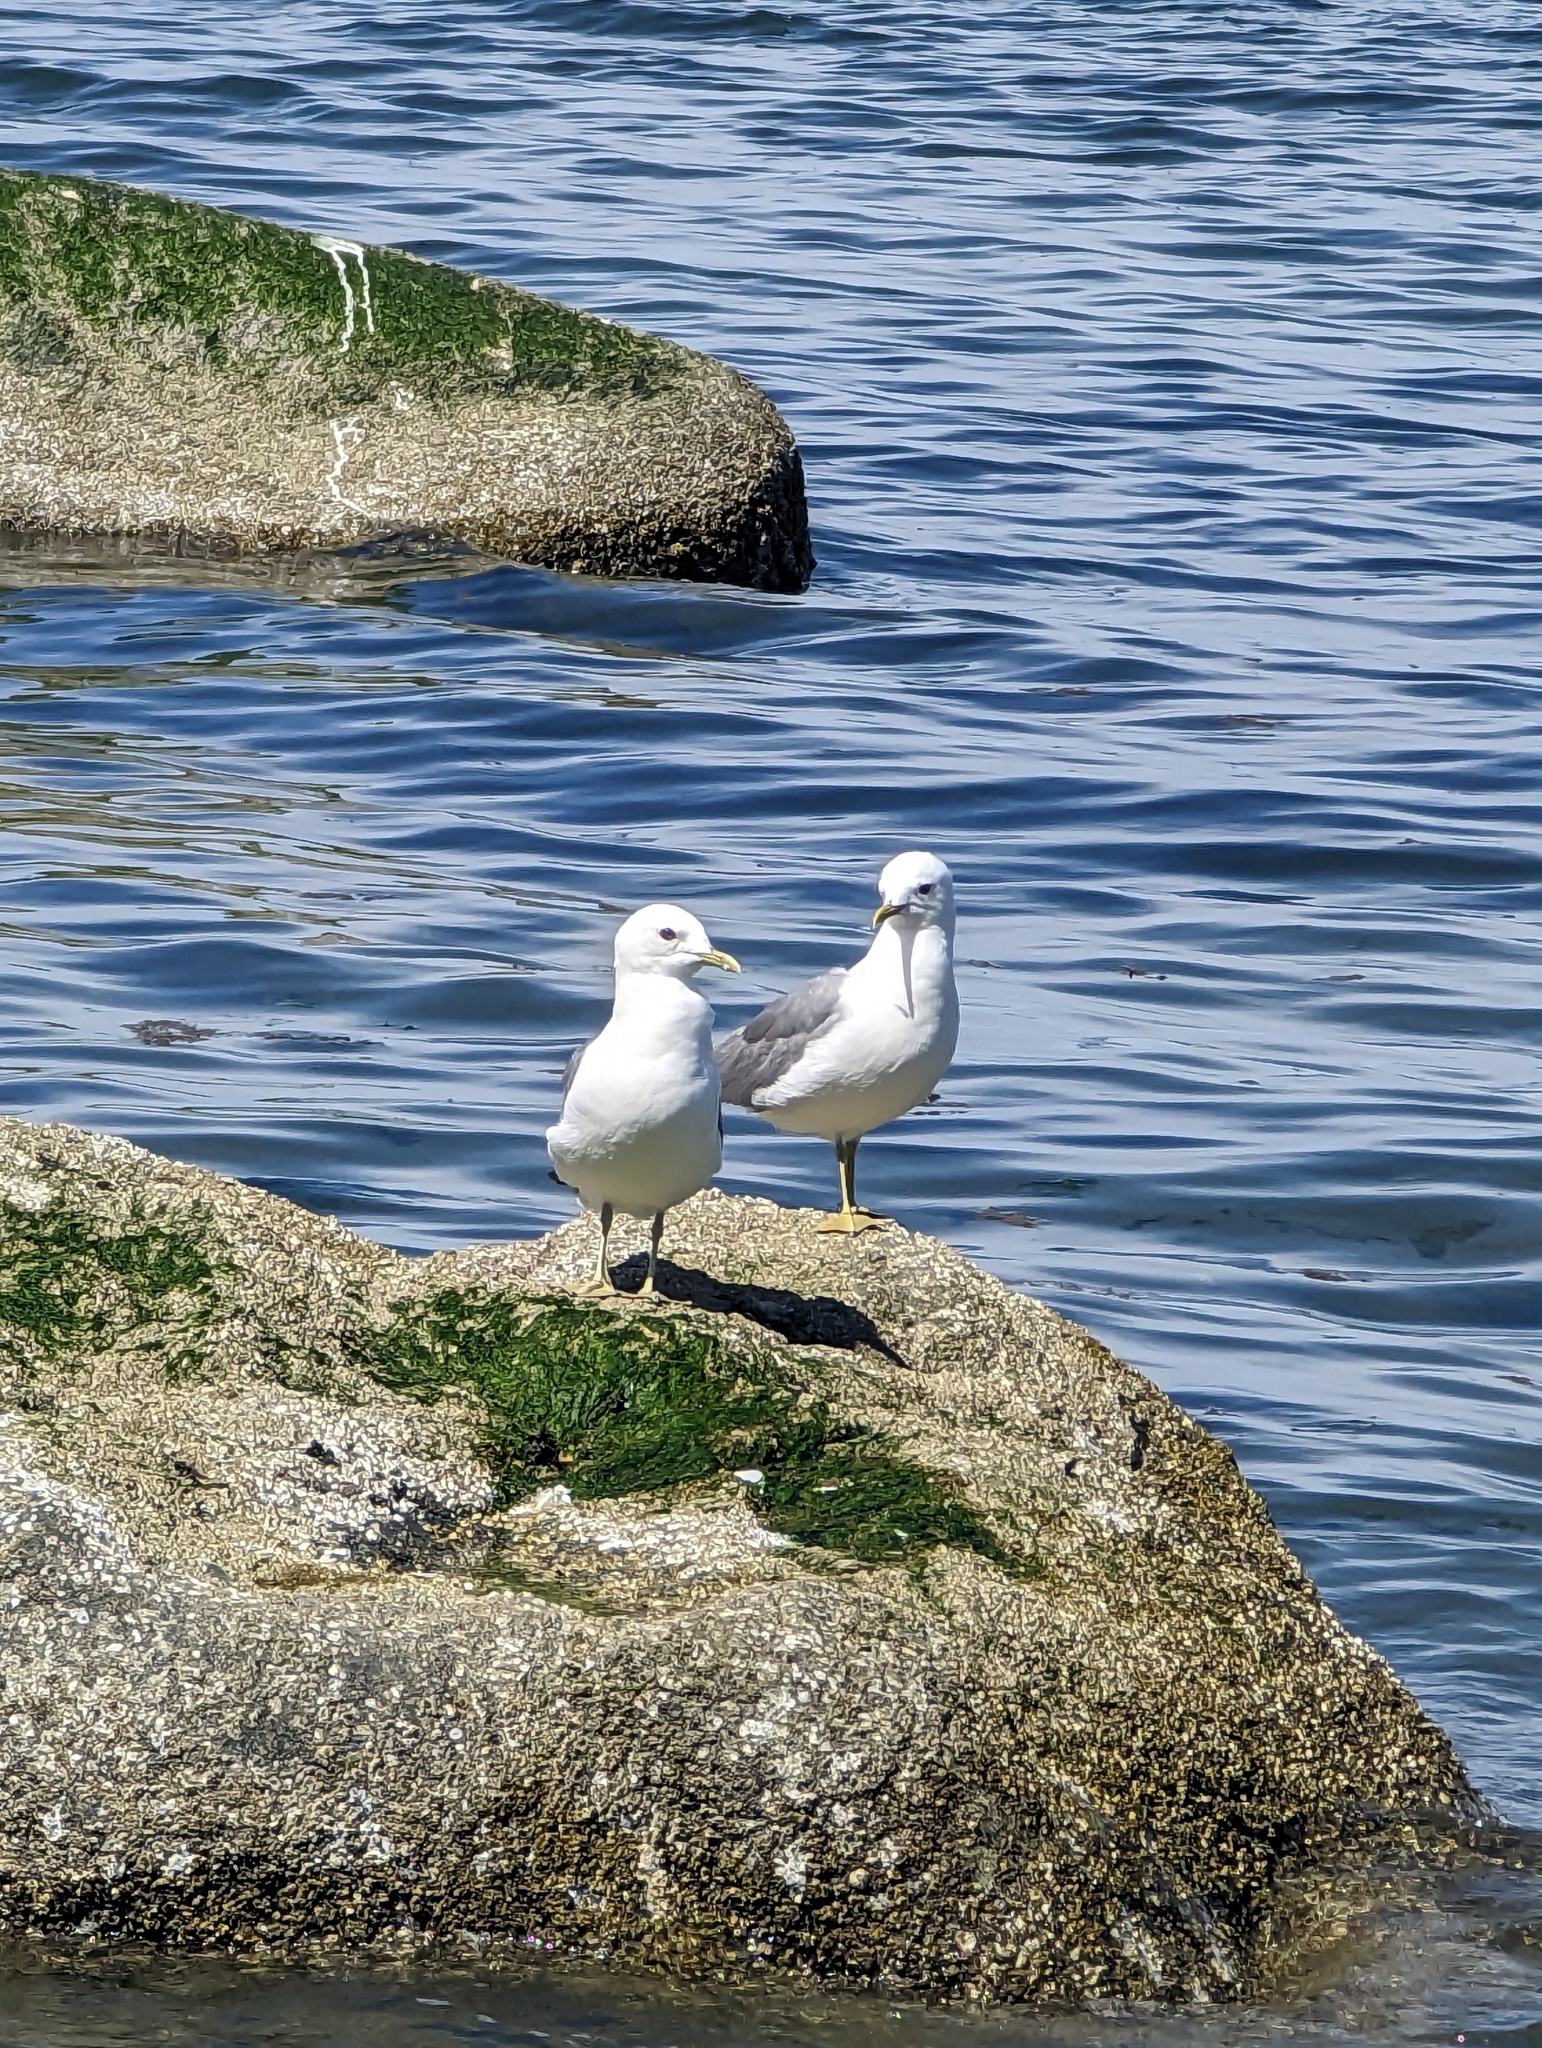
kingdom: Animalia
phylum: Chordata
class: Aves
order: Charadriiformes
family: Laridae
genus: Larus
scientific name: Larus brachyrhynchus
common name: Short-billed gull
